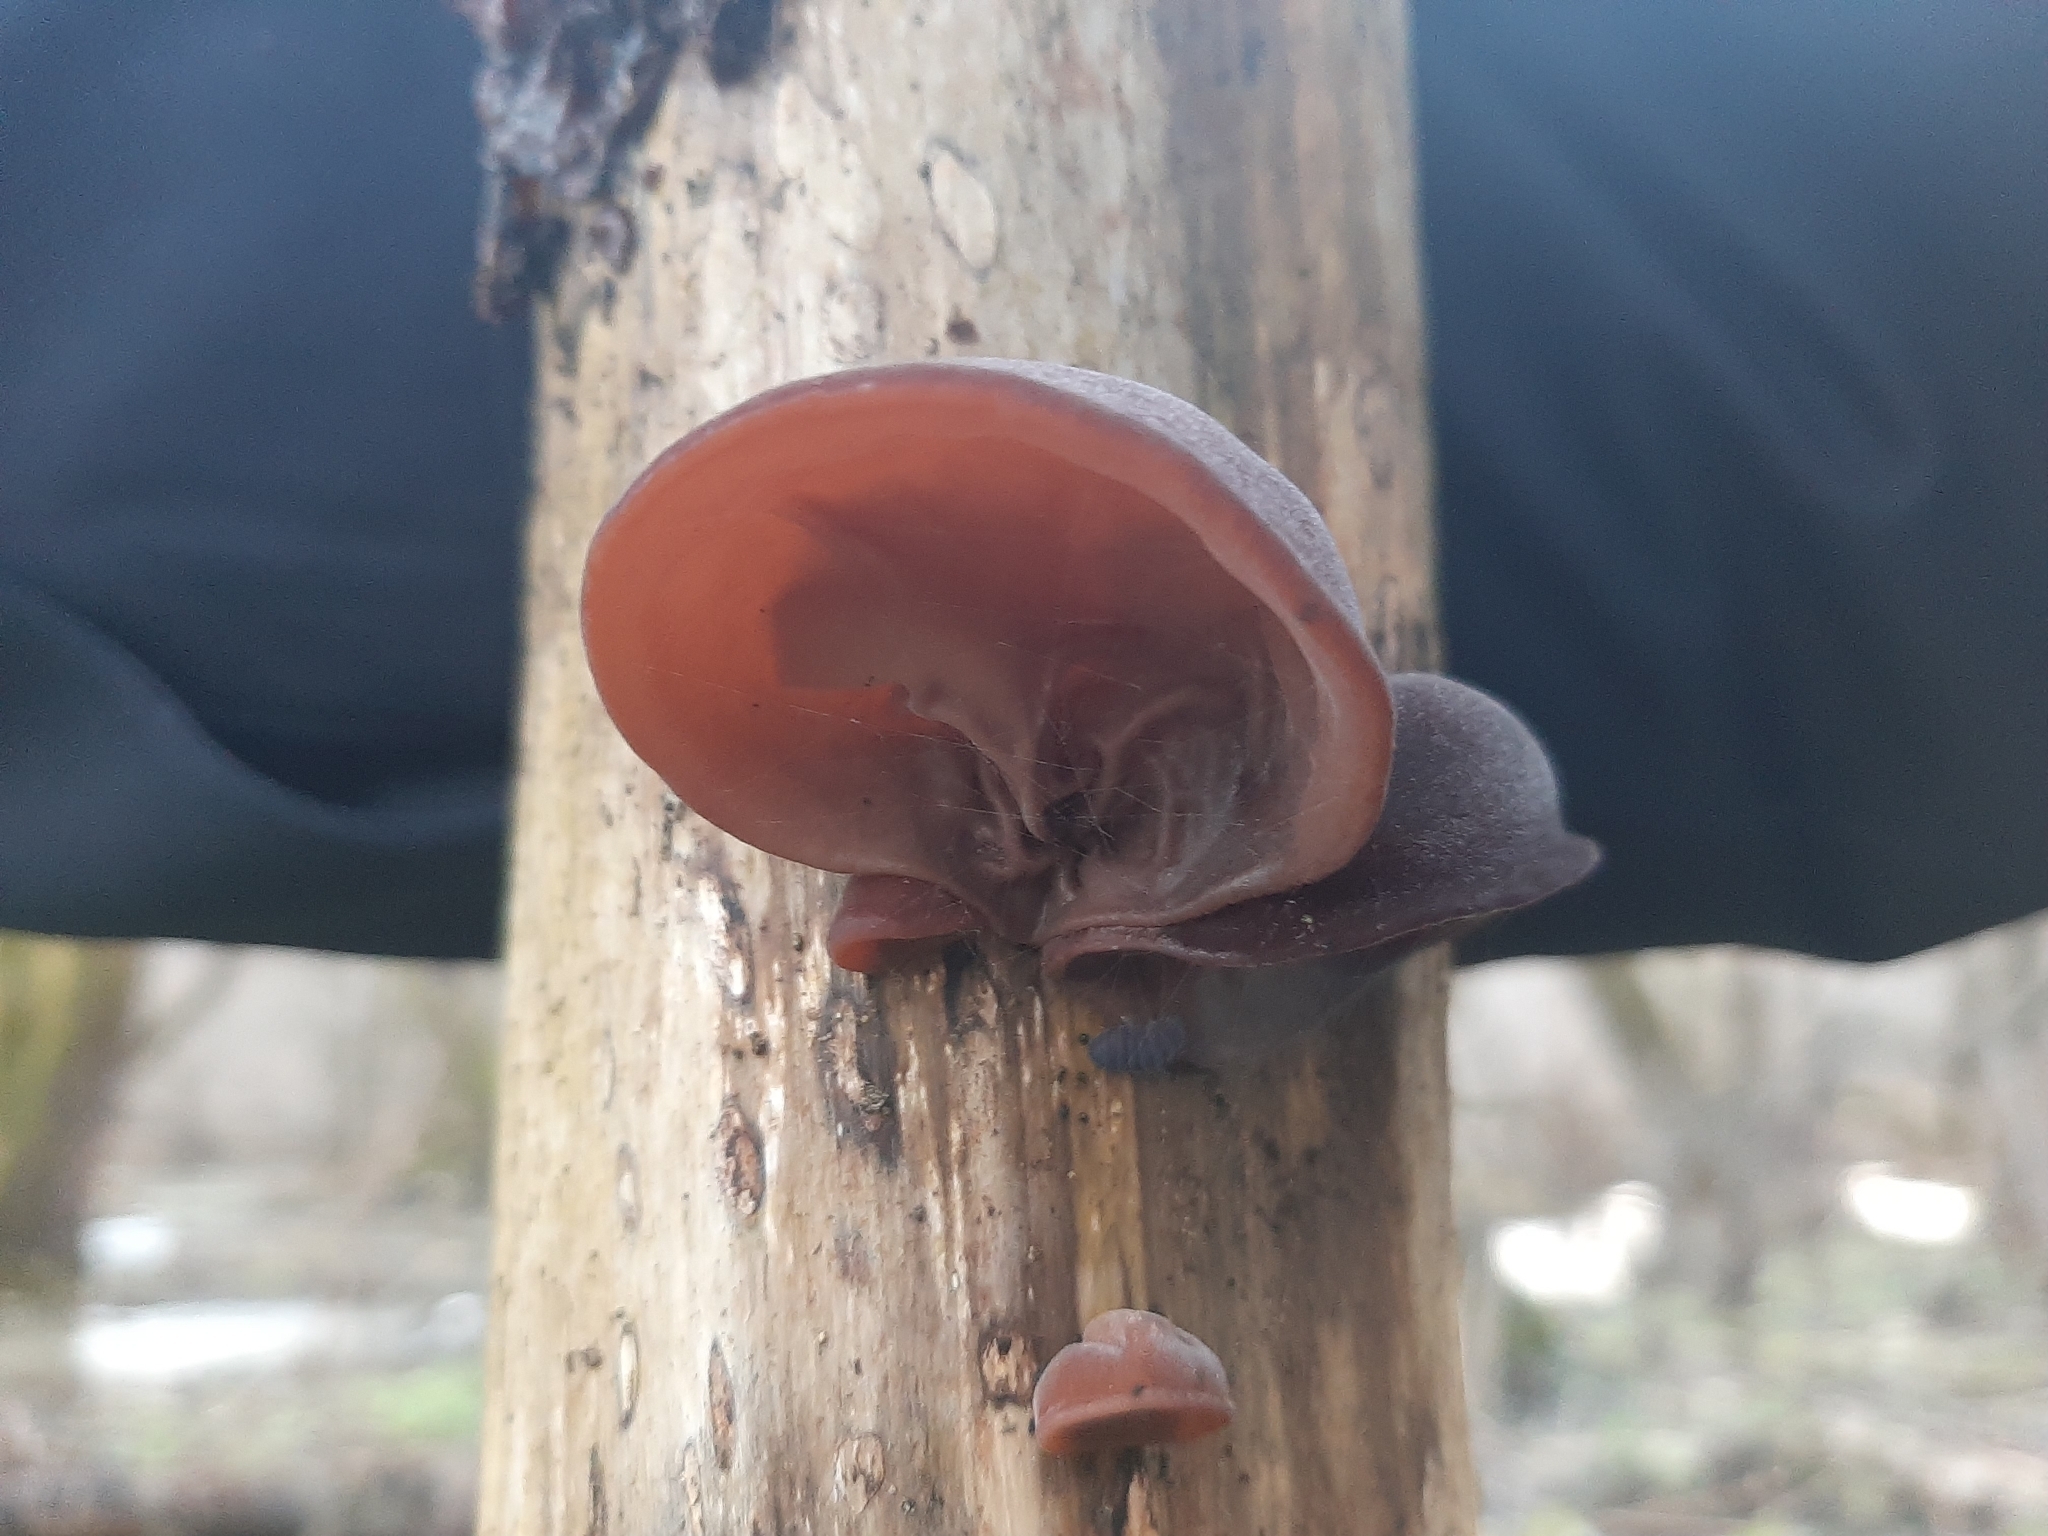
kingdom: Fungi
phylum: Basidiomycota
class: Agaricomycetes
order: Auriculariales
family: Auriculariaceae
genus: Auricularia
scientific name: Auricularia auricula-judae
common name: Jelly ear
